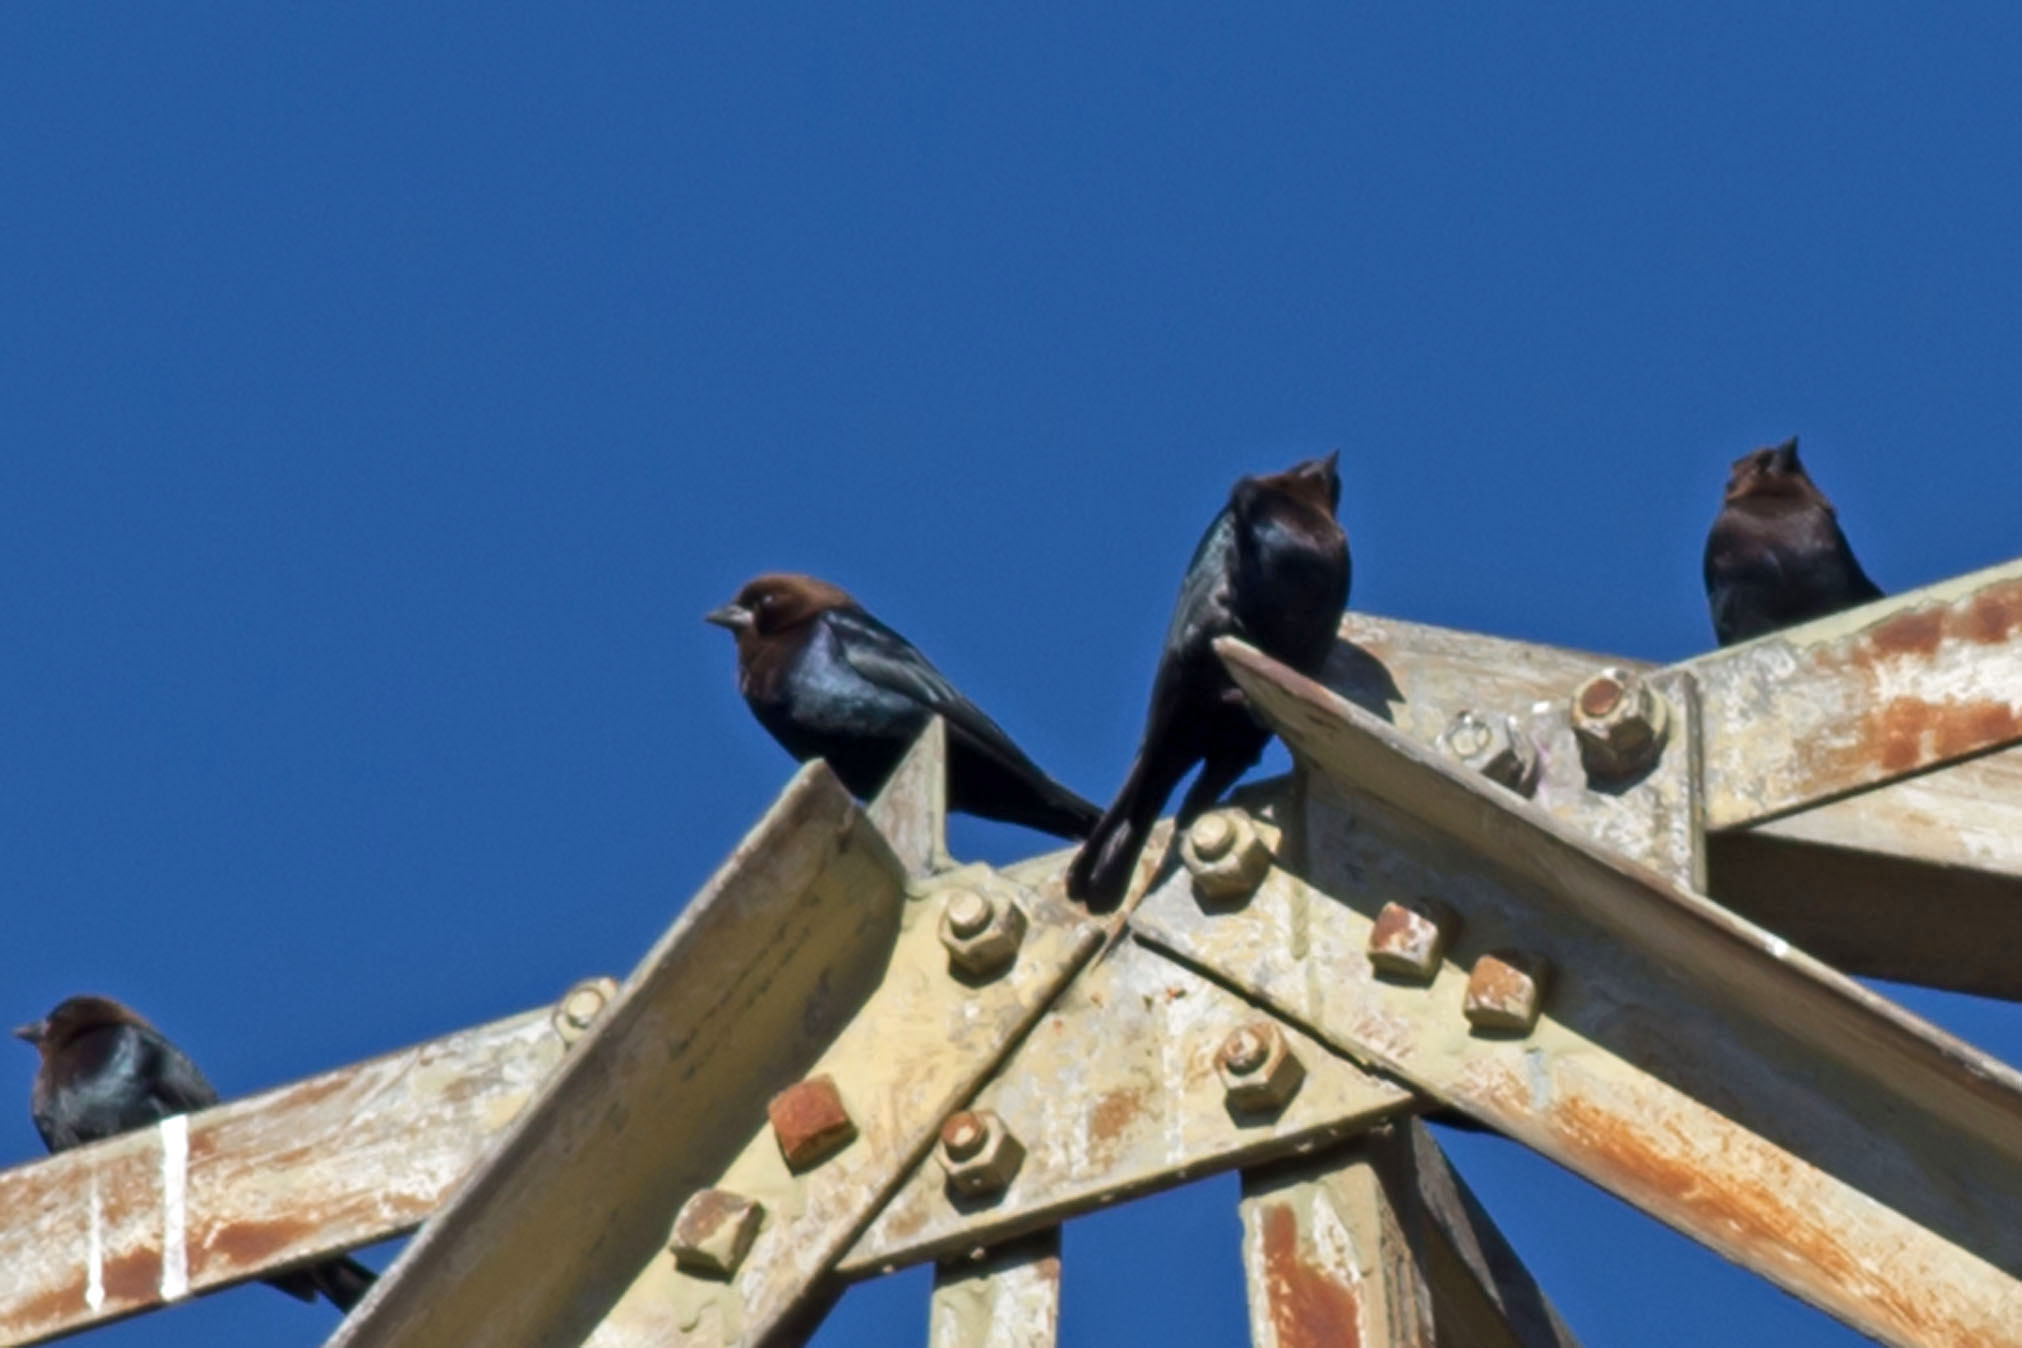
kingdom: Animalia
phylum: Chordata
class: Aves
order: Passeriformes
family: Icteridae
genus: Molothrus
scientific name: Molothrus ater
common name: Brown-headed cowbird
